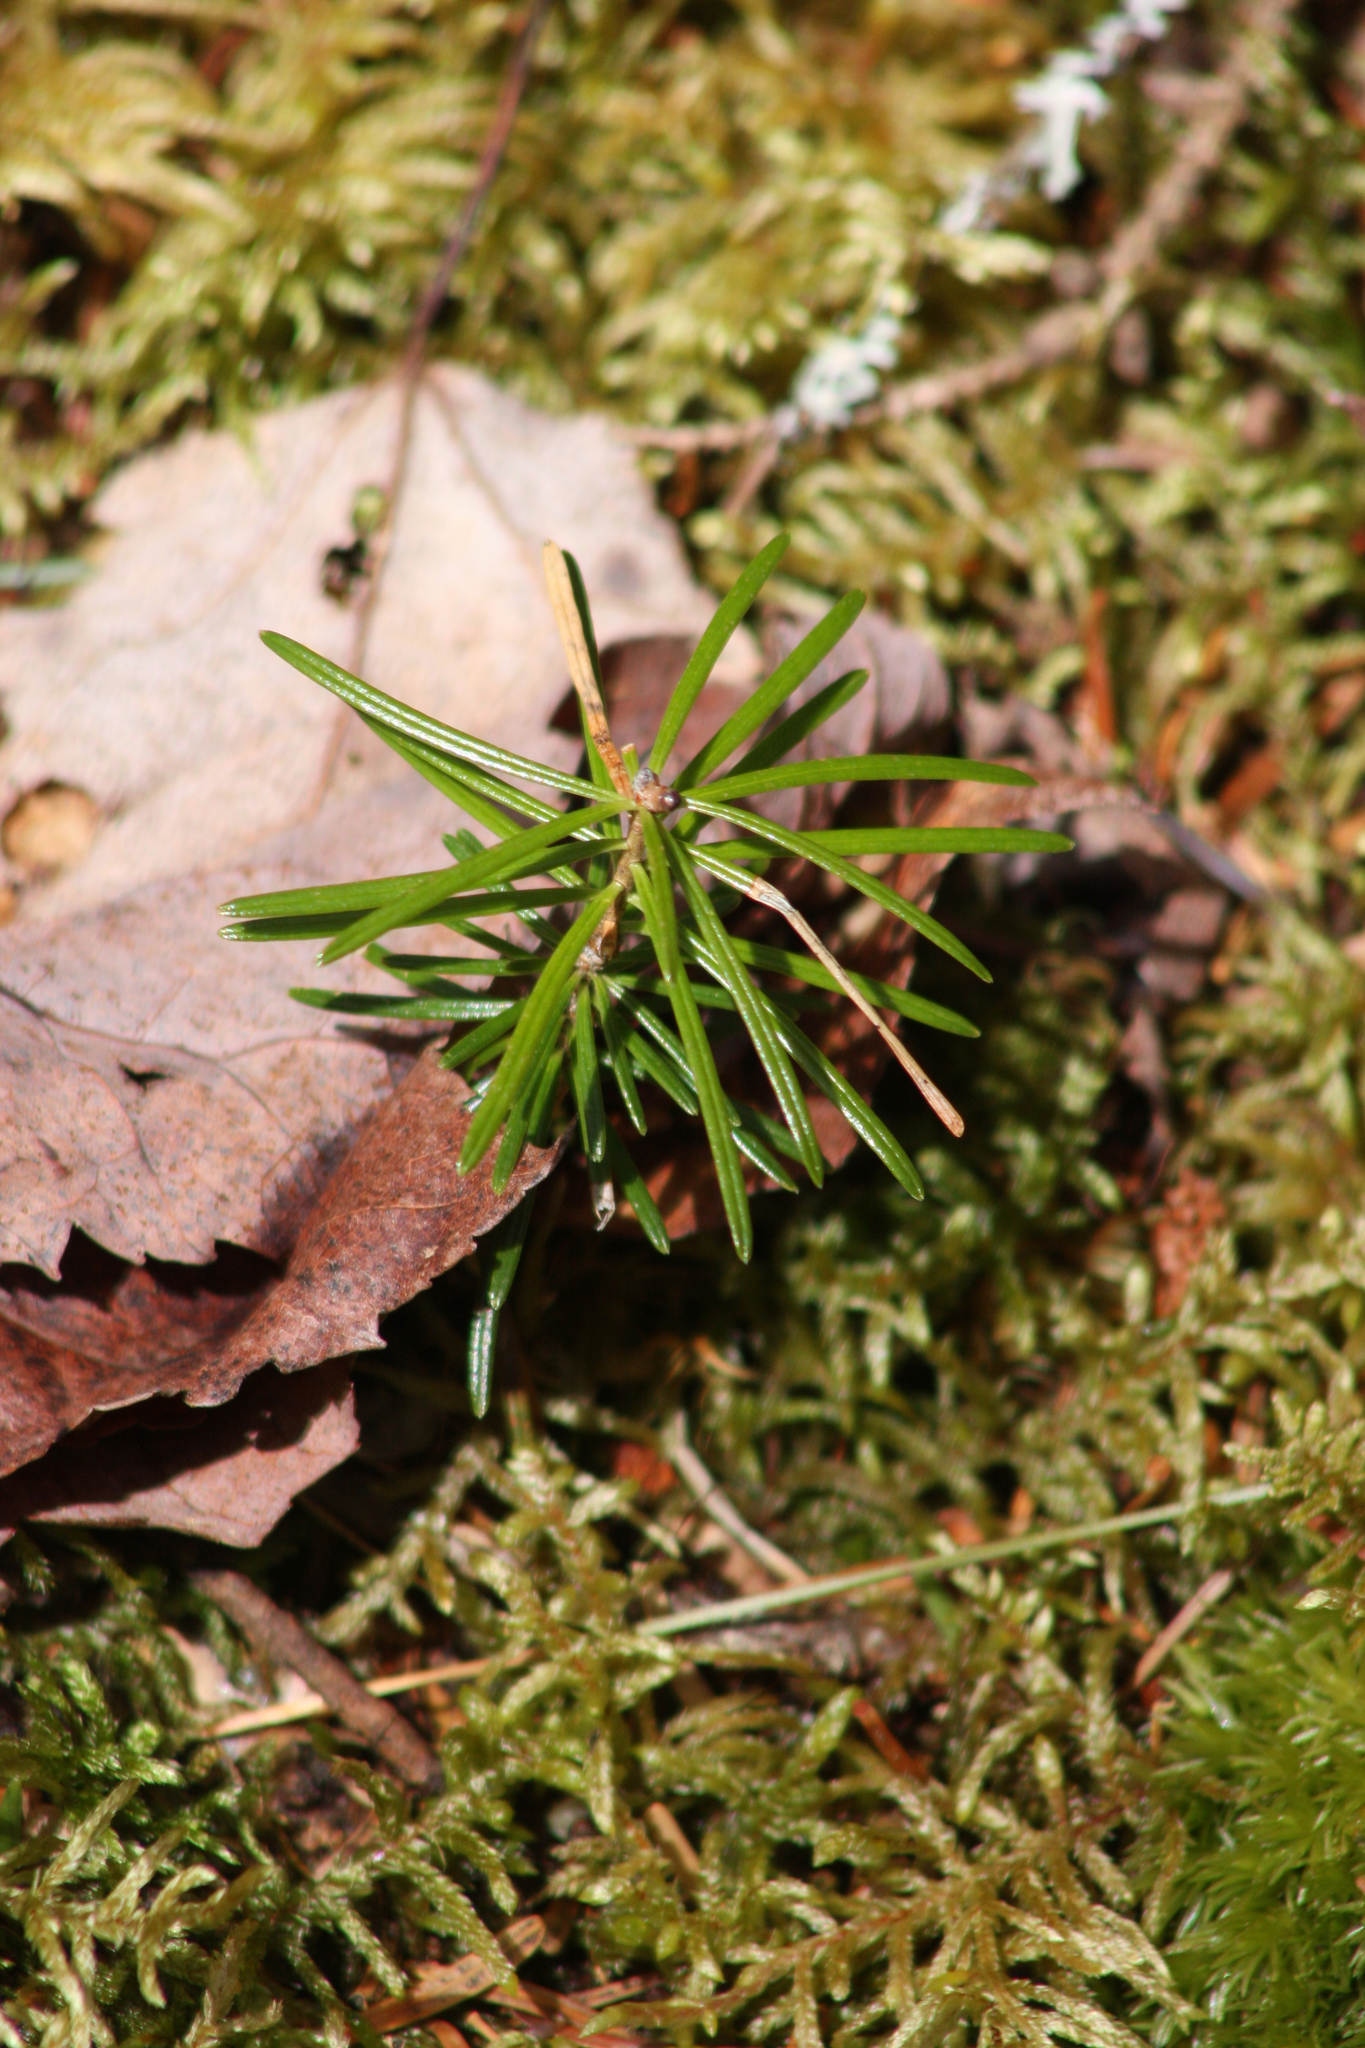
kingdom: Plantae
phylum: Tracheophyta
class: Pinopsida
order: Pinales
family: Pinaceae
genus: Tsuga
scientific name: Tsuga canadensis
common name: Eastern hemlock
